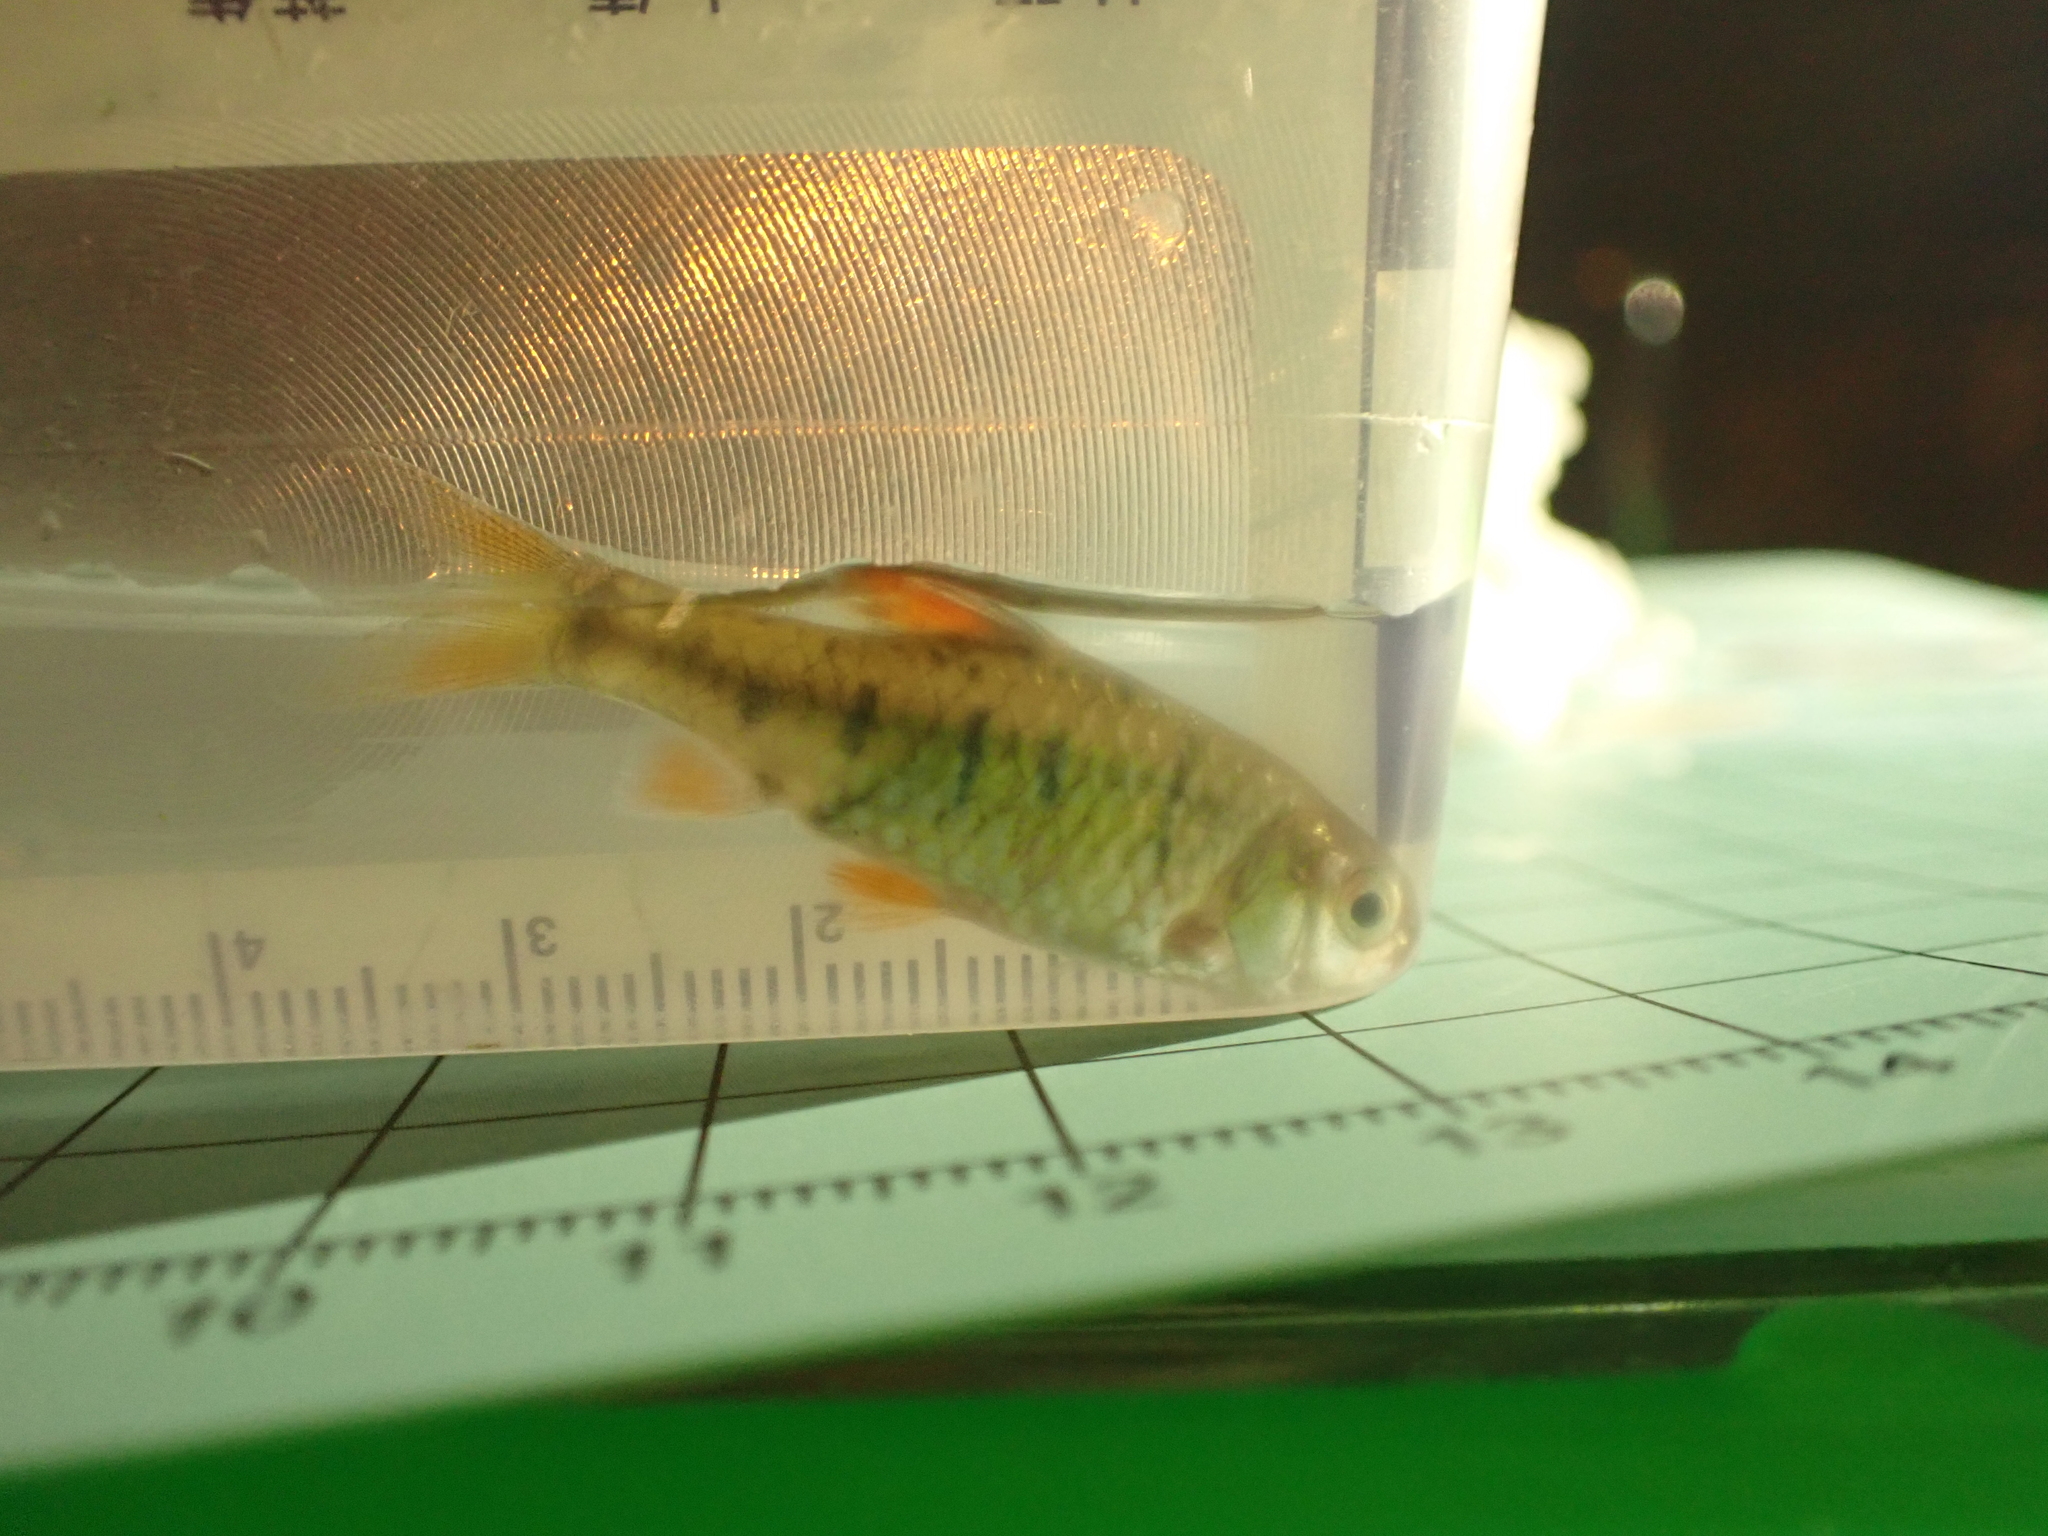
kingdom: Animalia
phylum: Chordata
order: Cypriniformes
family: Cyprinidae
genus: Barbodes
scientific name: Barbodes semifasciolatus
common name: Gold barb
